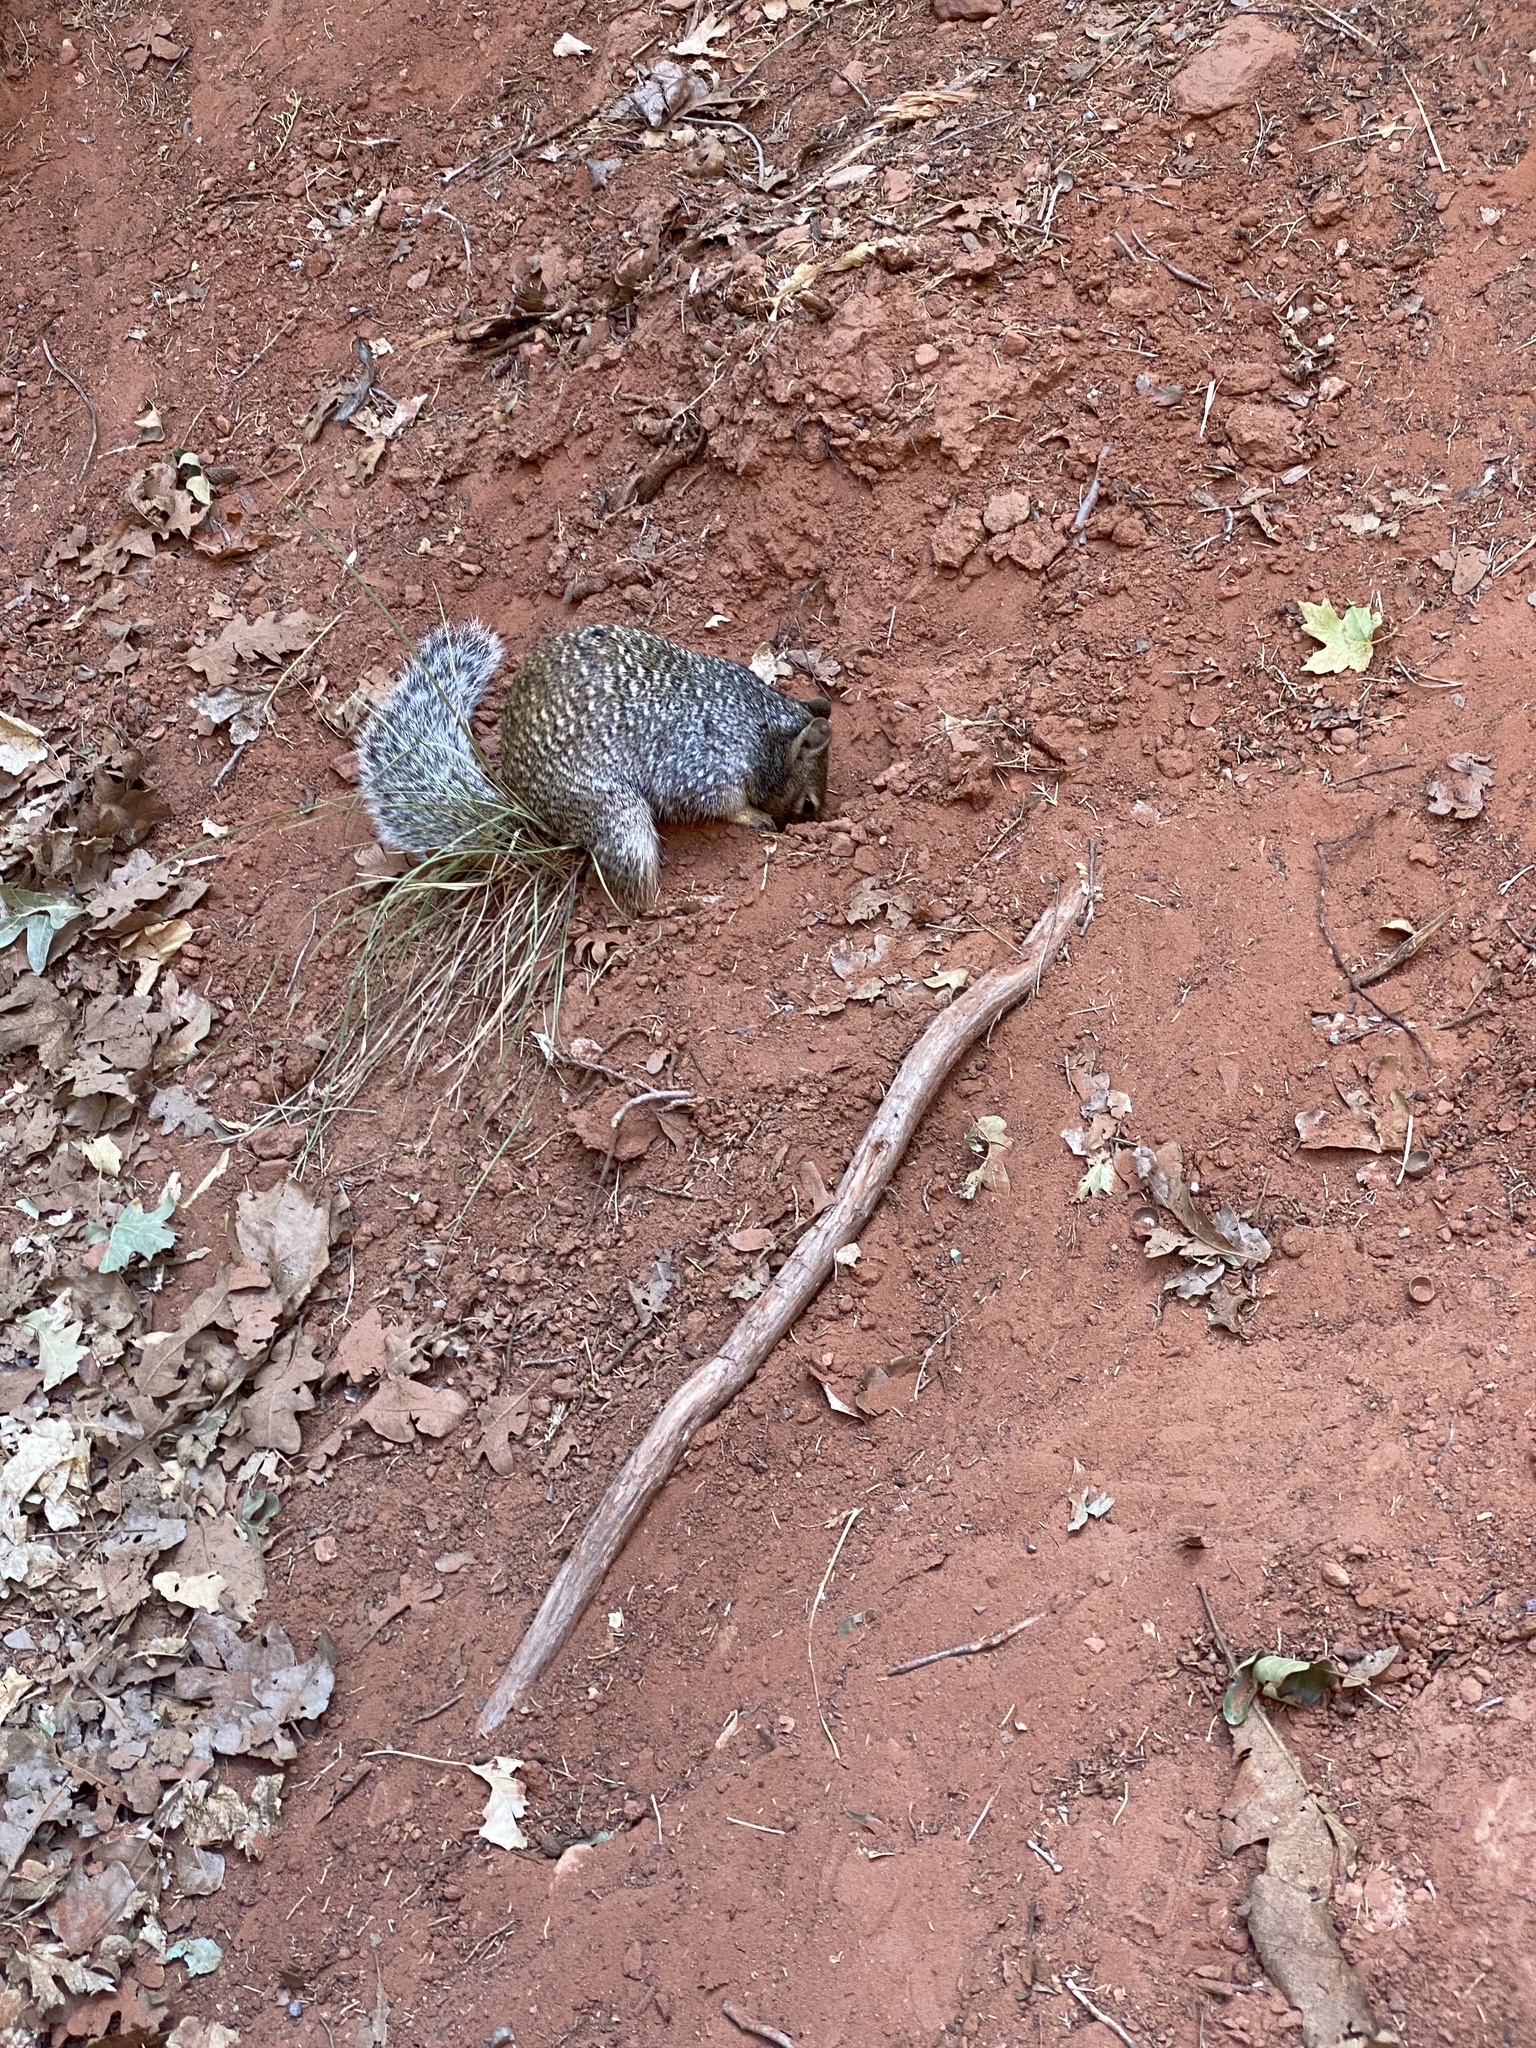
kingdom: Animalia
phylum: Chordata
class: Mammalia
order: Rodentia
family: Sciuridae
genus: Otospermophilus
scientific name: Otospermophilus variegatus
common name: Rock squirrel
